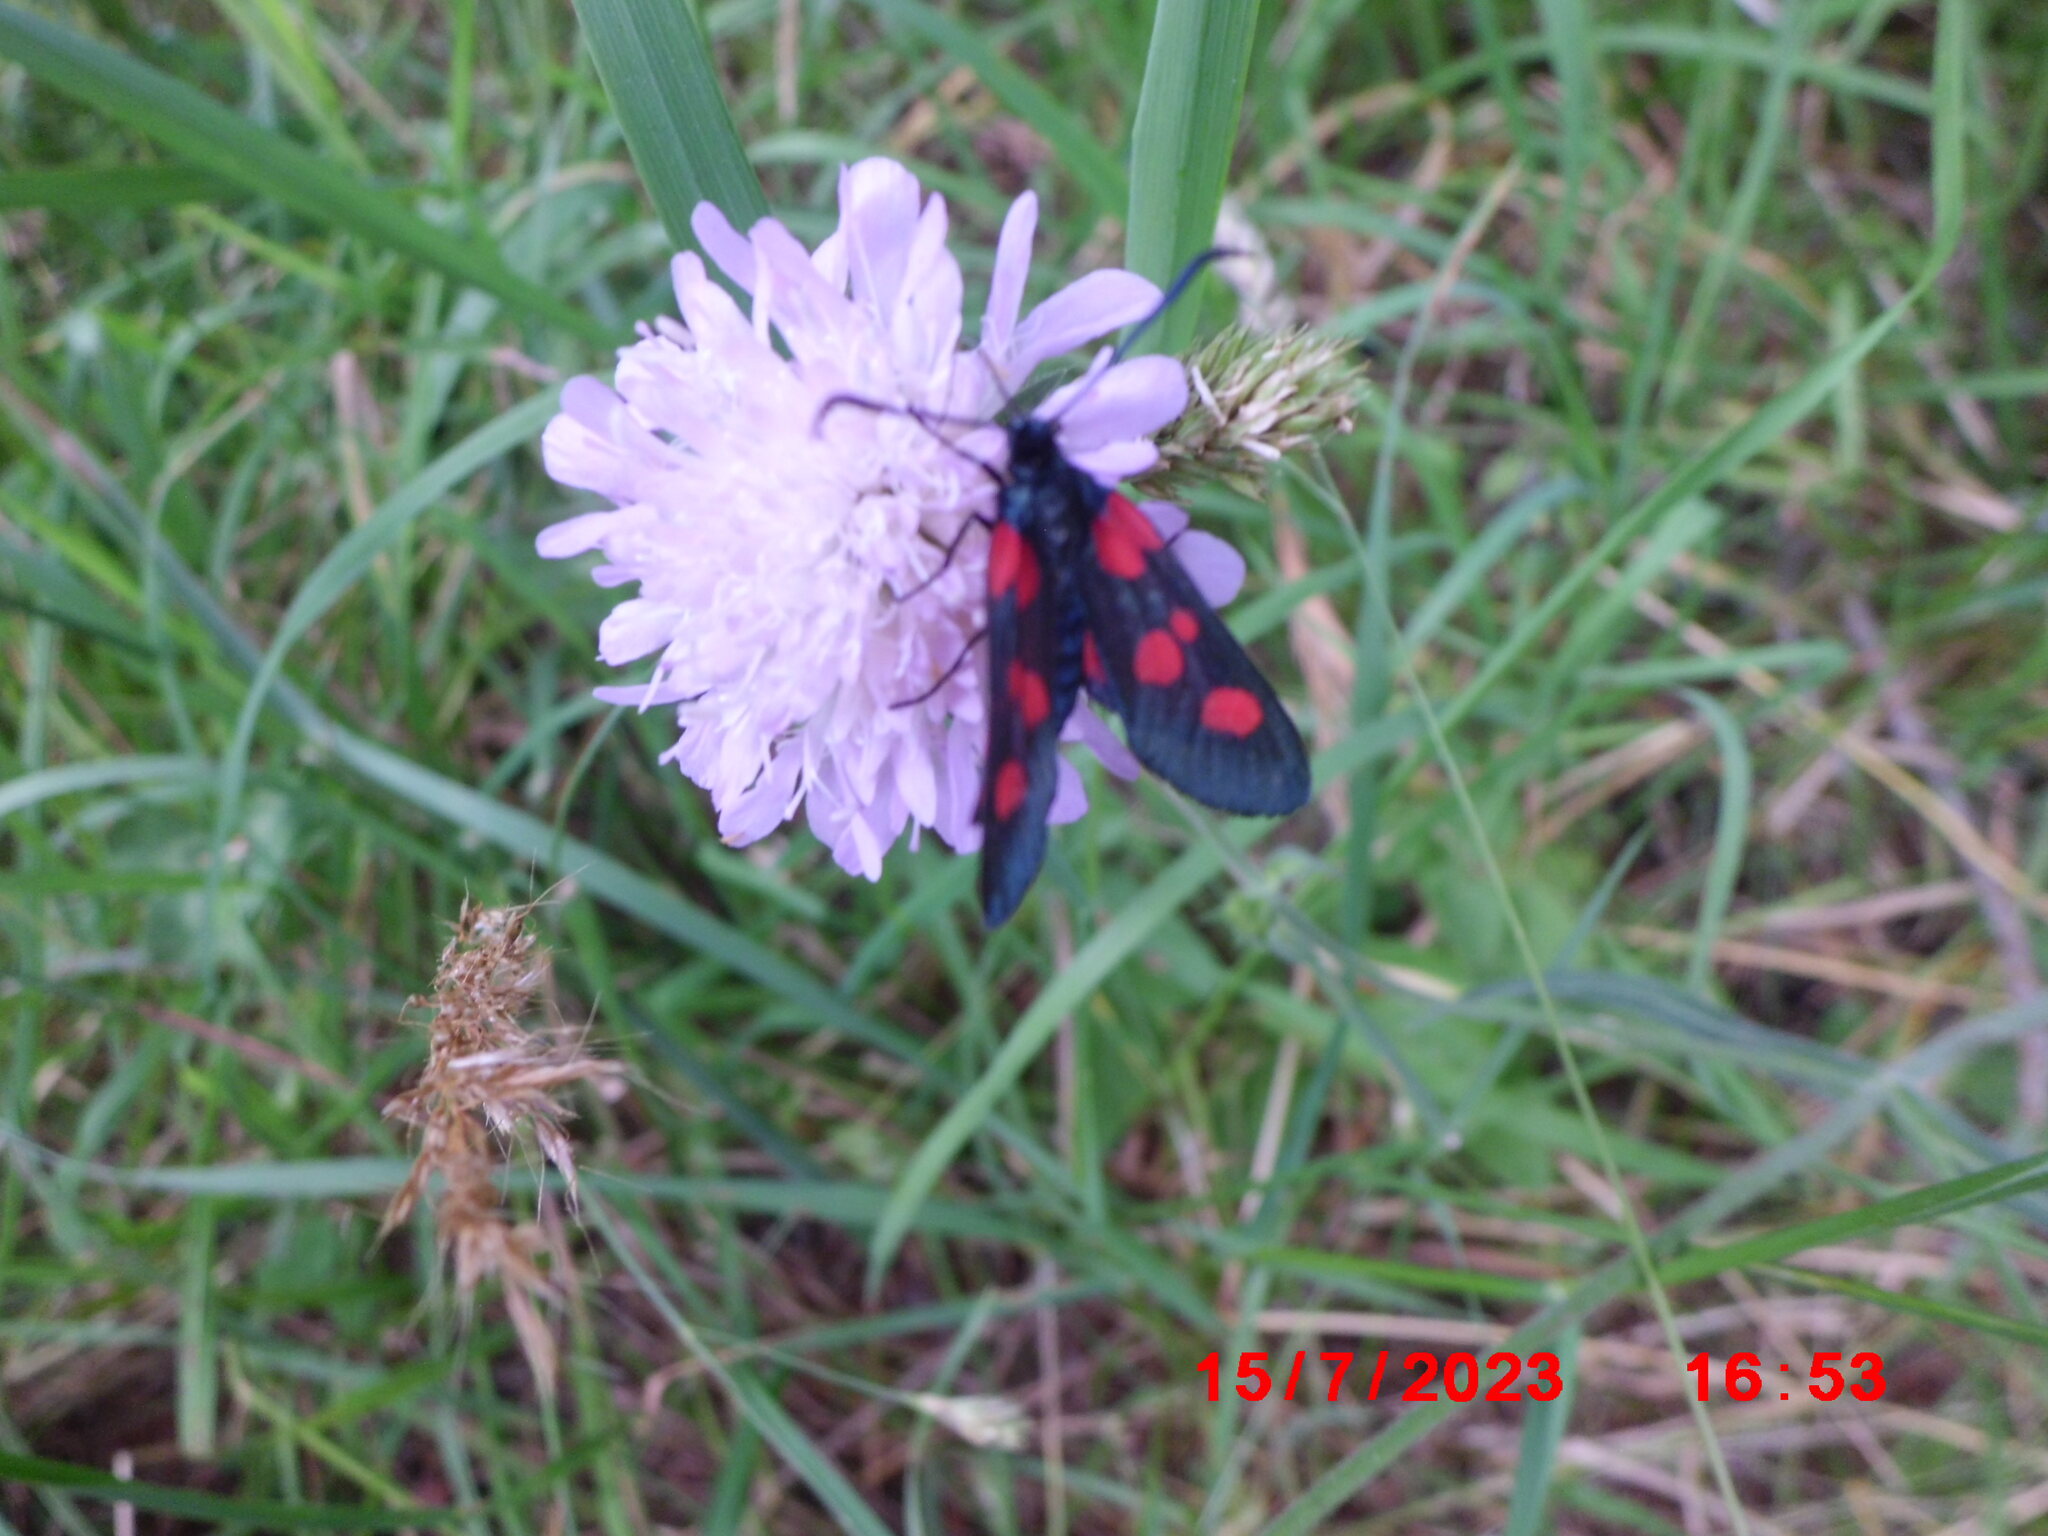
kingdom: Animalia
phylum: Arthropoda
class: Insecta
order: Lepidoptera
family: Zygaenidae
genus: Zygaena
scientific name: Zygaena viciae
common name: New forest burnet
